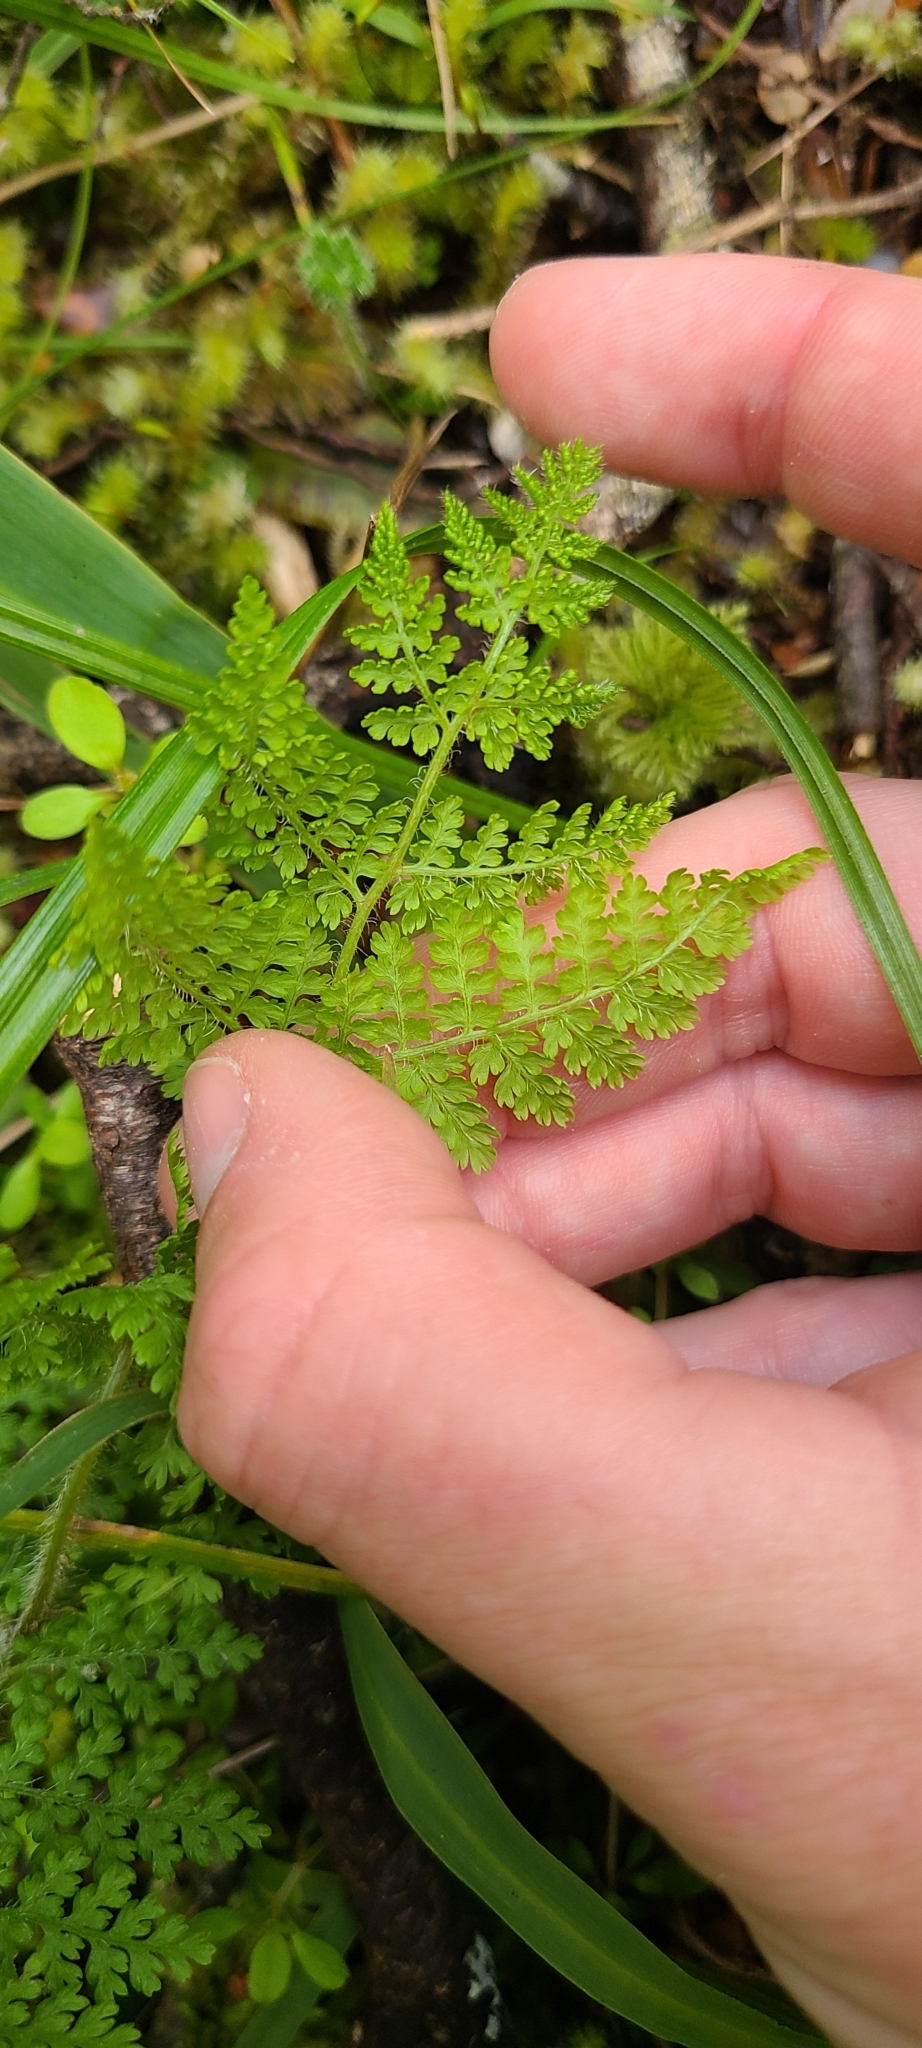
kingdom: Plantae
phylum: Tracheophyta
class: Polypodiopsida
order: Polypodiales
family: Dennstaedtiaceae
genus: Hypolepis
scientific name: Hypolepis ambigua
